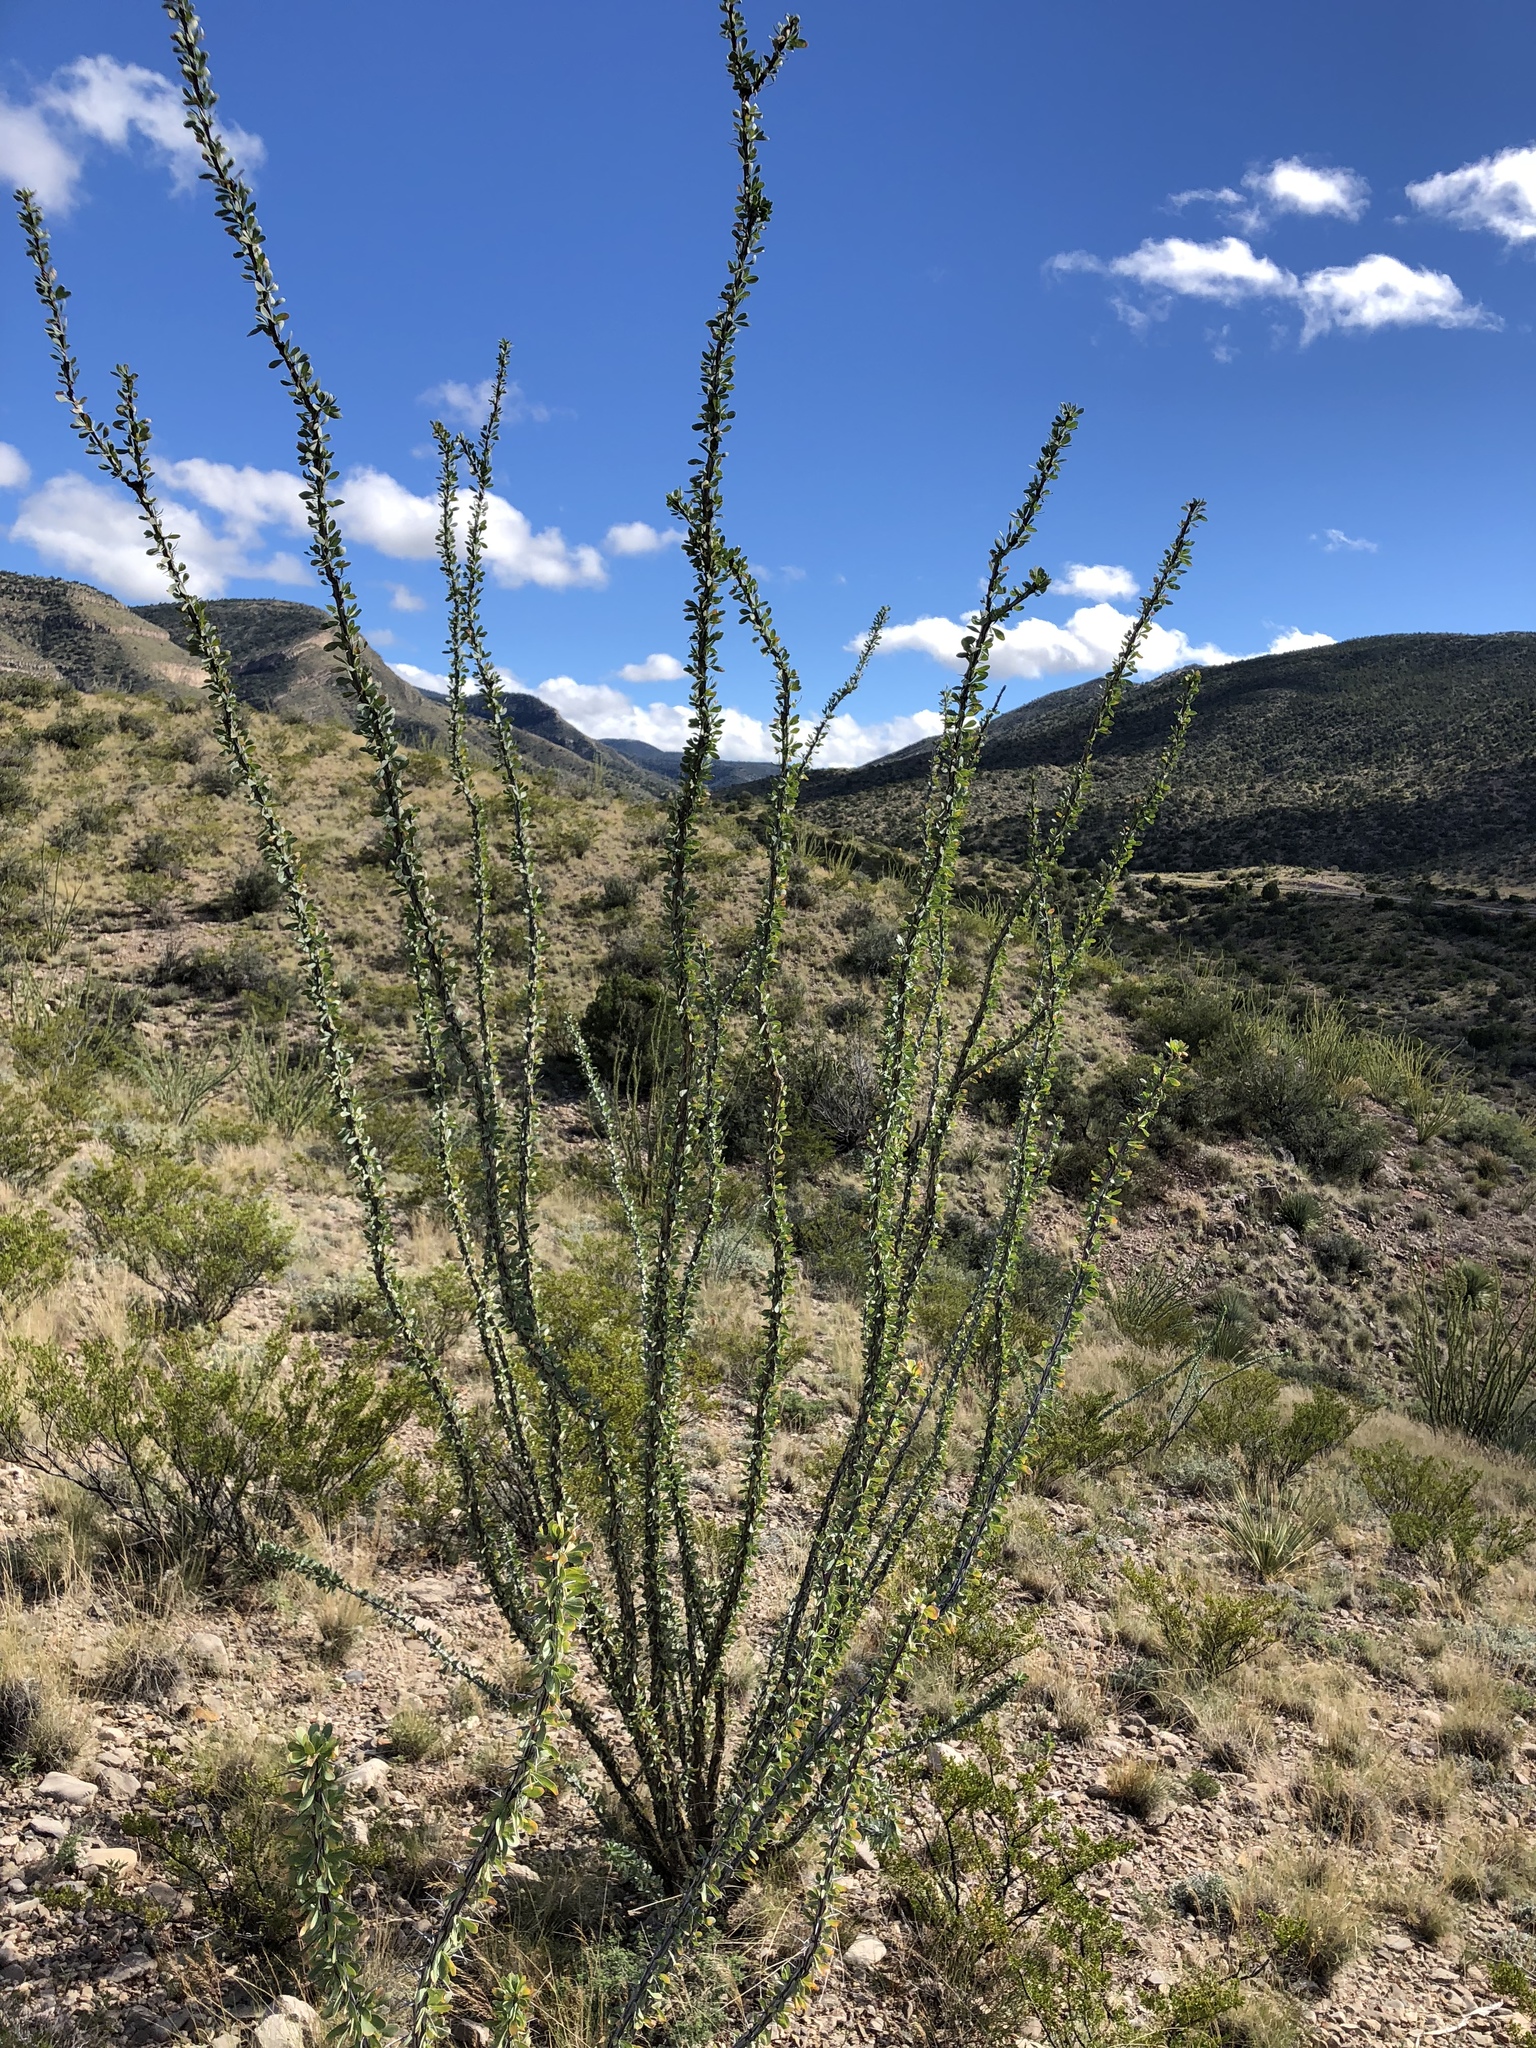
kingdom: Plantae
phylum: Tracheophyta
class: Magnoliopsida
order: Ericales
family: Fouquieriaceae
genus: Fouquieria
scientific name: Fouquieria splendens
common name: Vine-cactus
